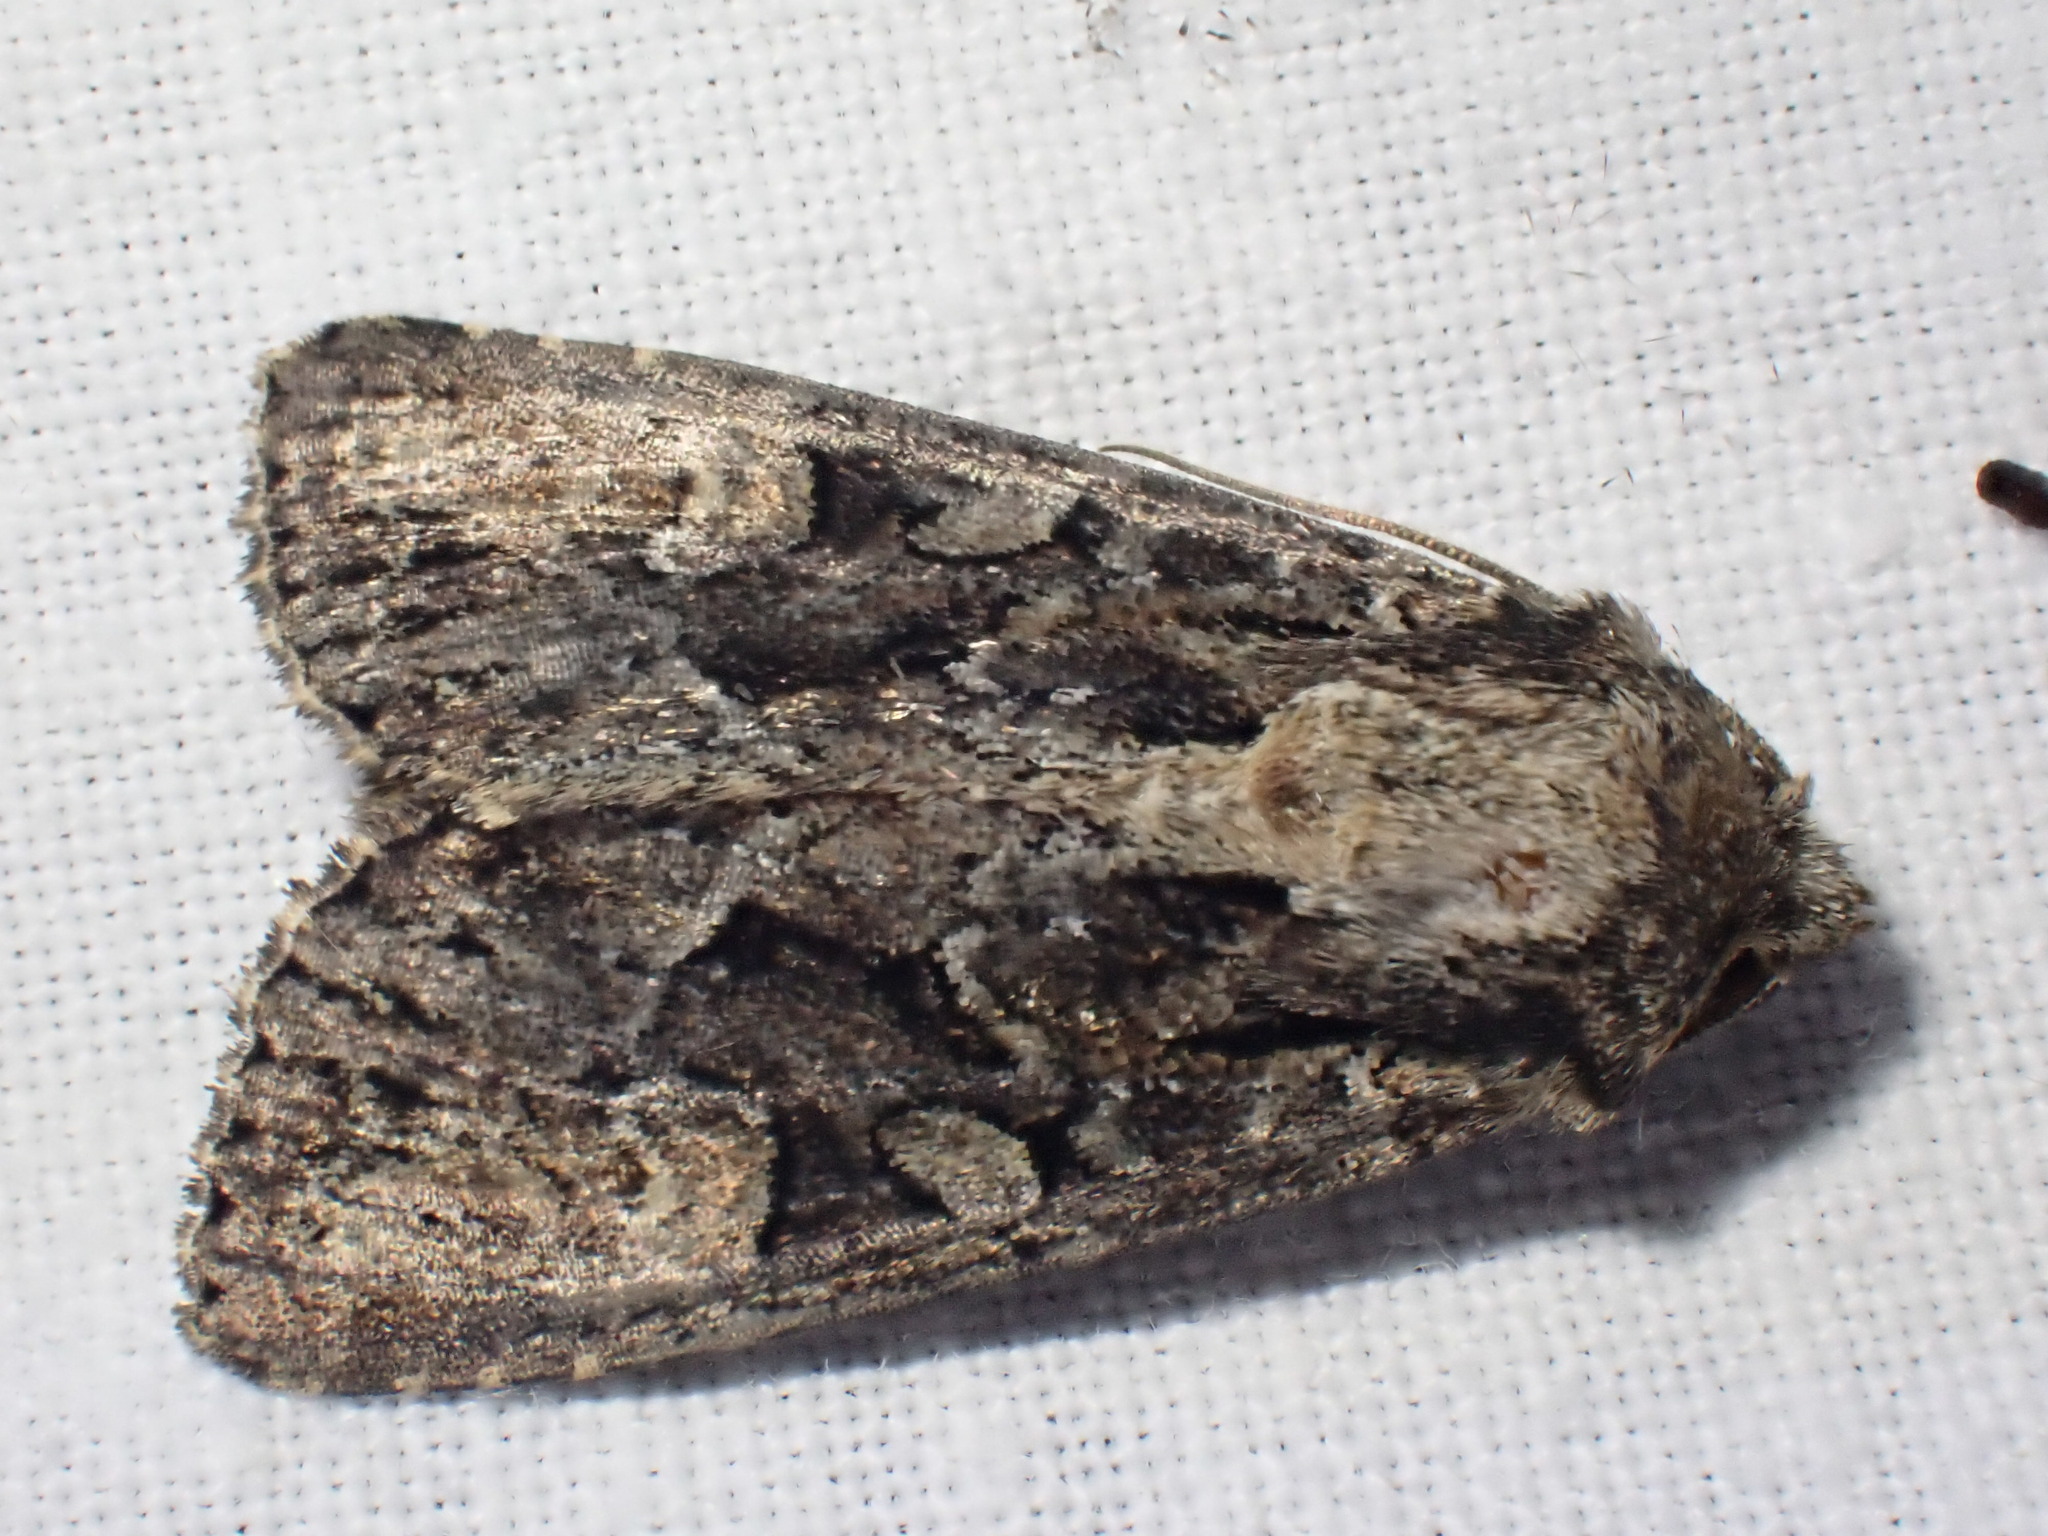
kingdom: Animalia
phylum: Arthropoda
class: Insecta
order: Lepidoptera
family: Noctuidae
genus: Apamea
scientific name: Apamea remissa
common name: Dusky brocade
